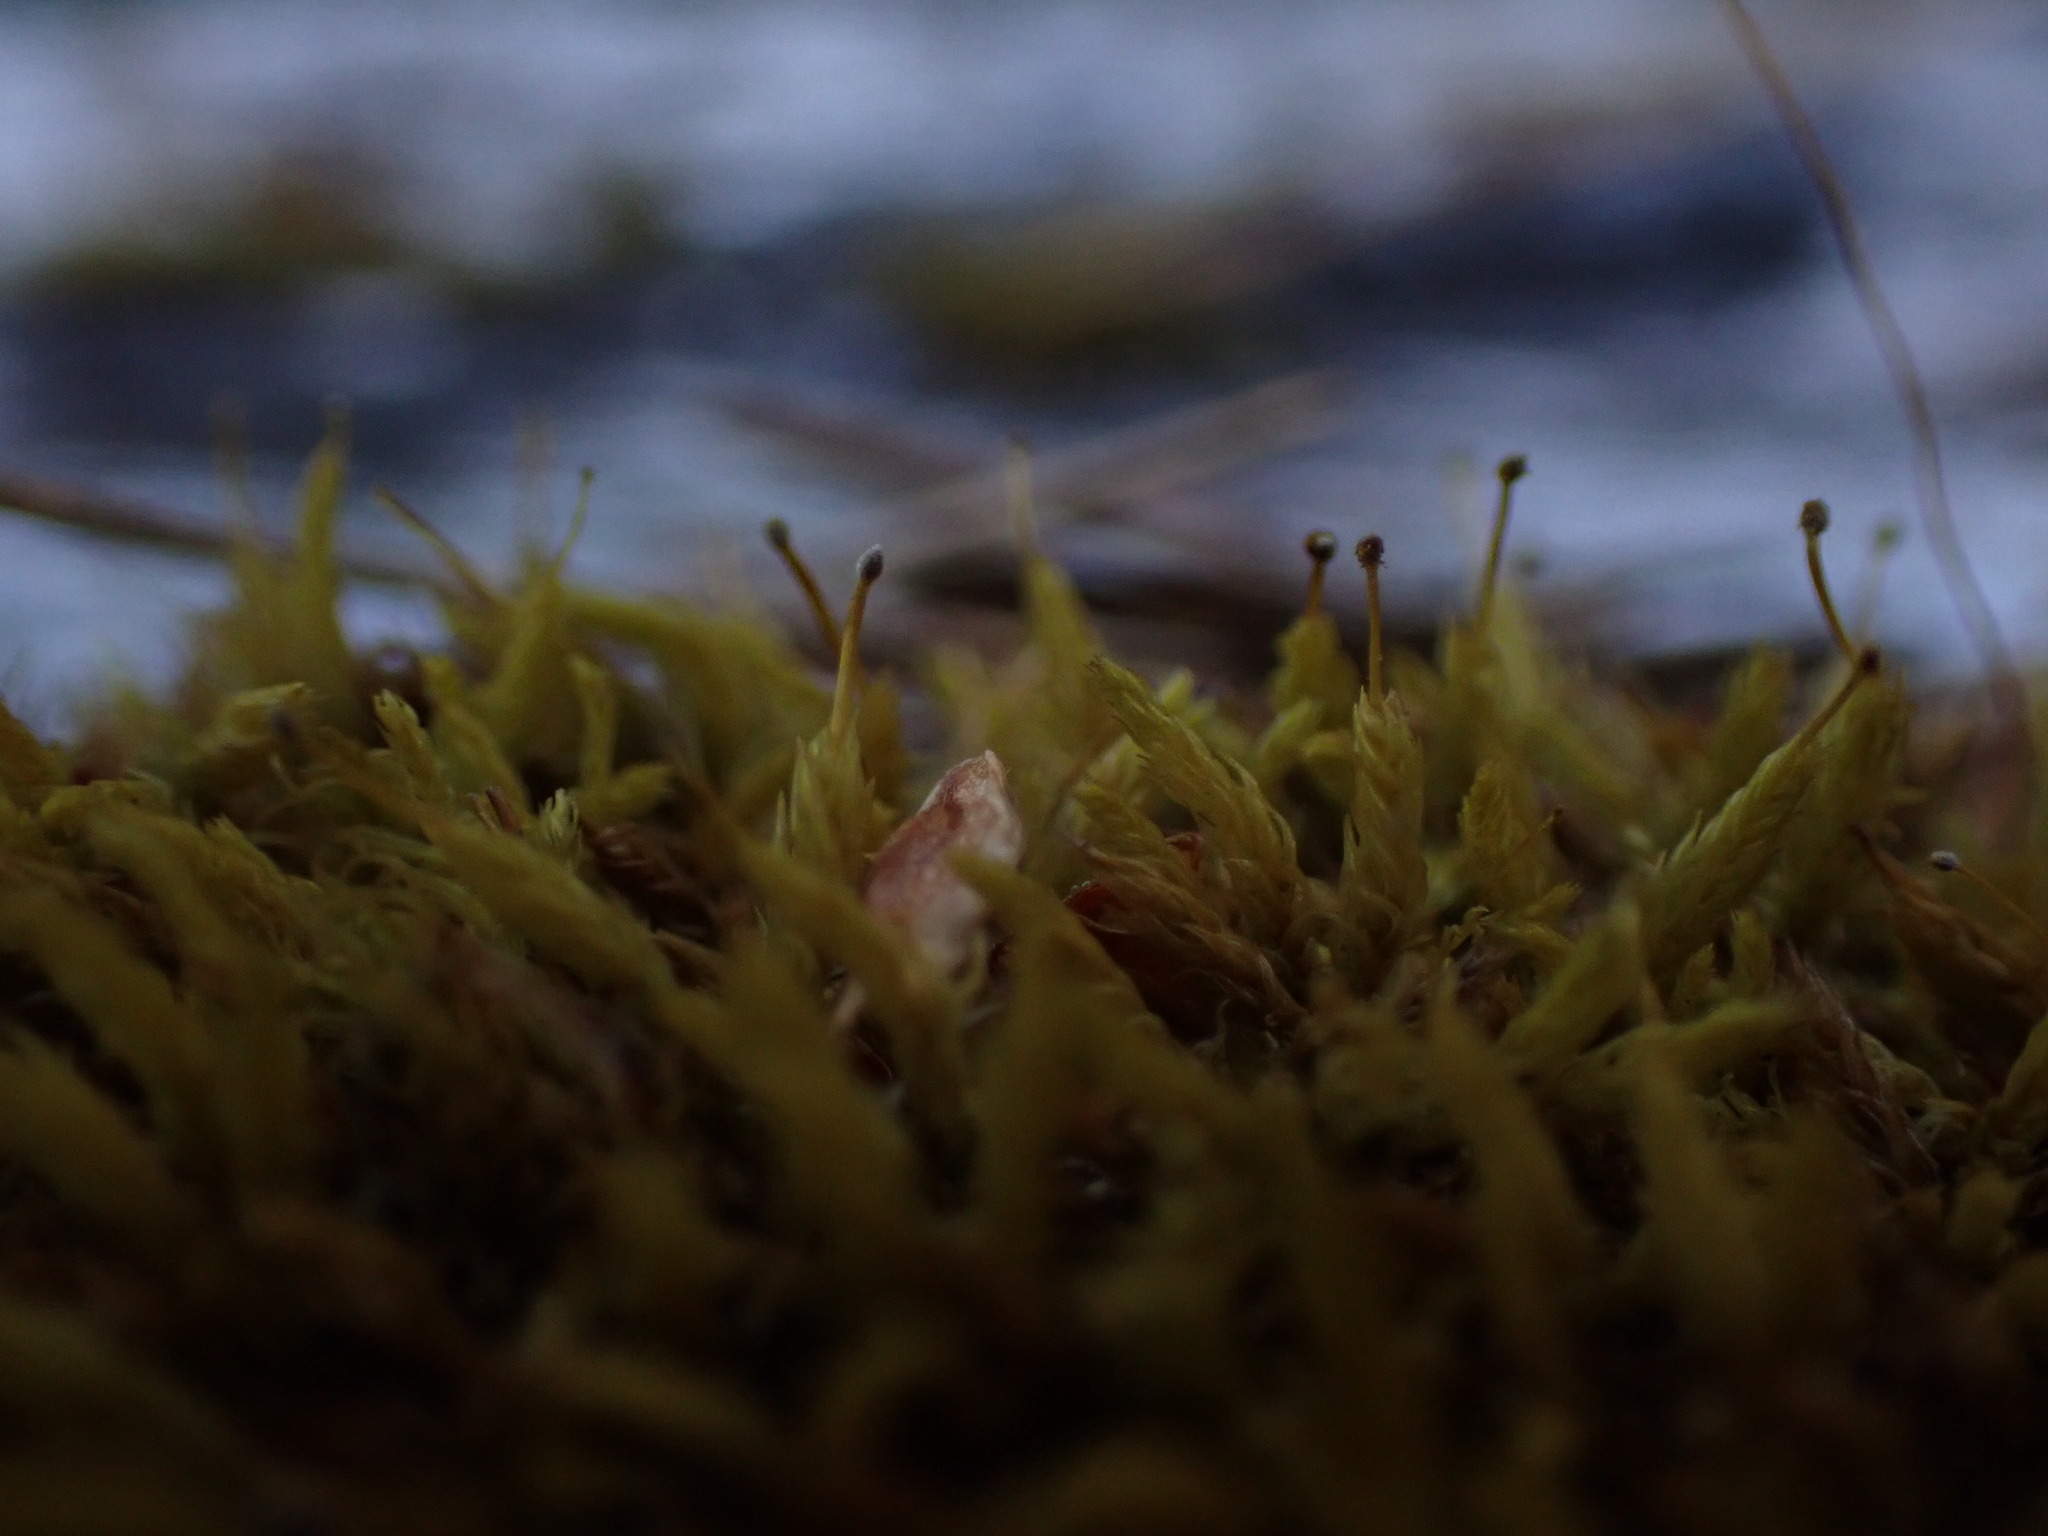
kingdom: Plantae
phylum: Bryophyta
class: Bryopsida
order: Aulacomniales
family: Aulacomniaceae
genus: Aulacomnium
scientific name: Aulacomnium androgynum
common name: Little groove moss
